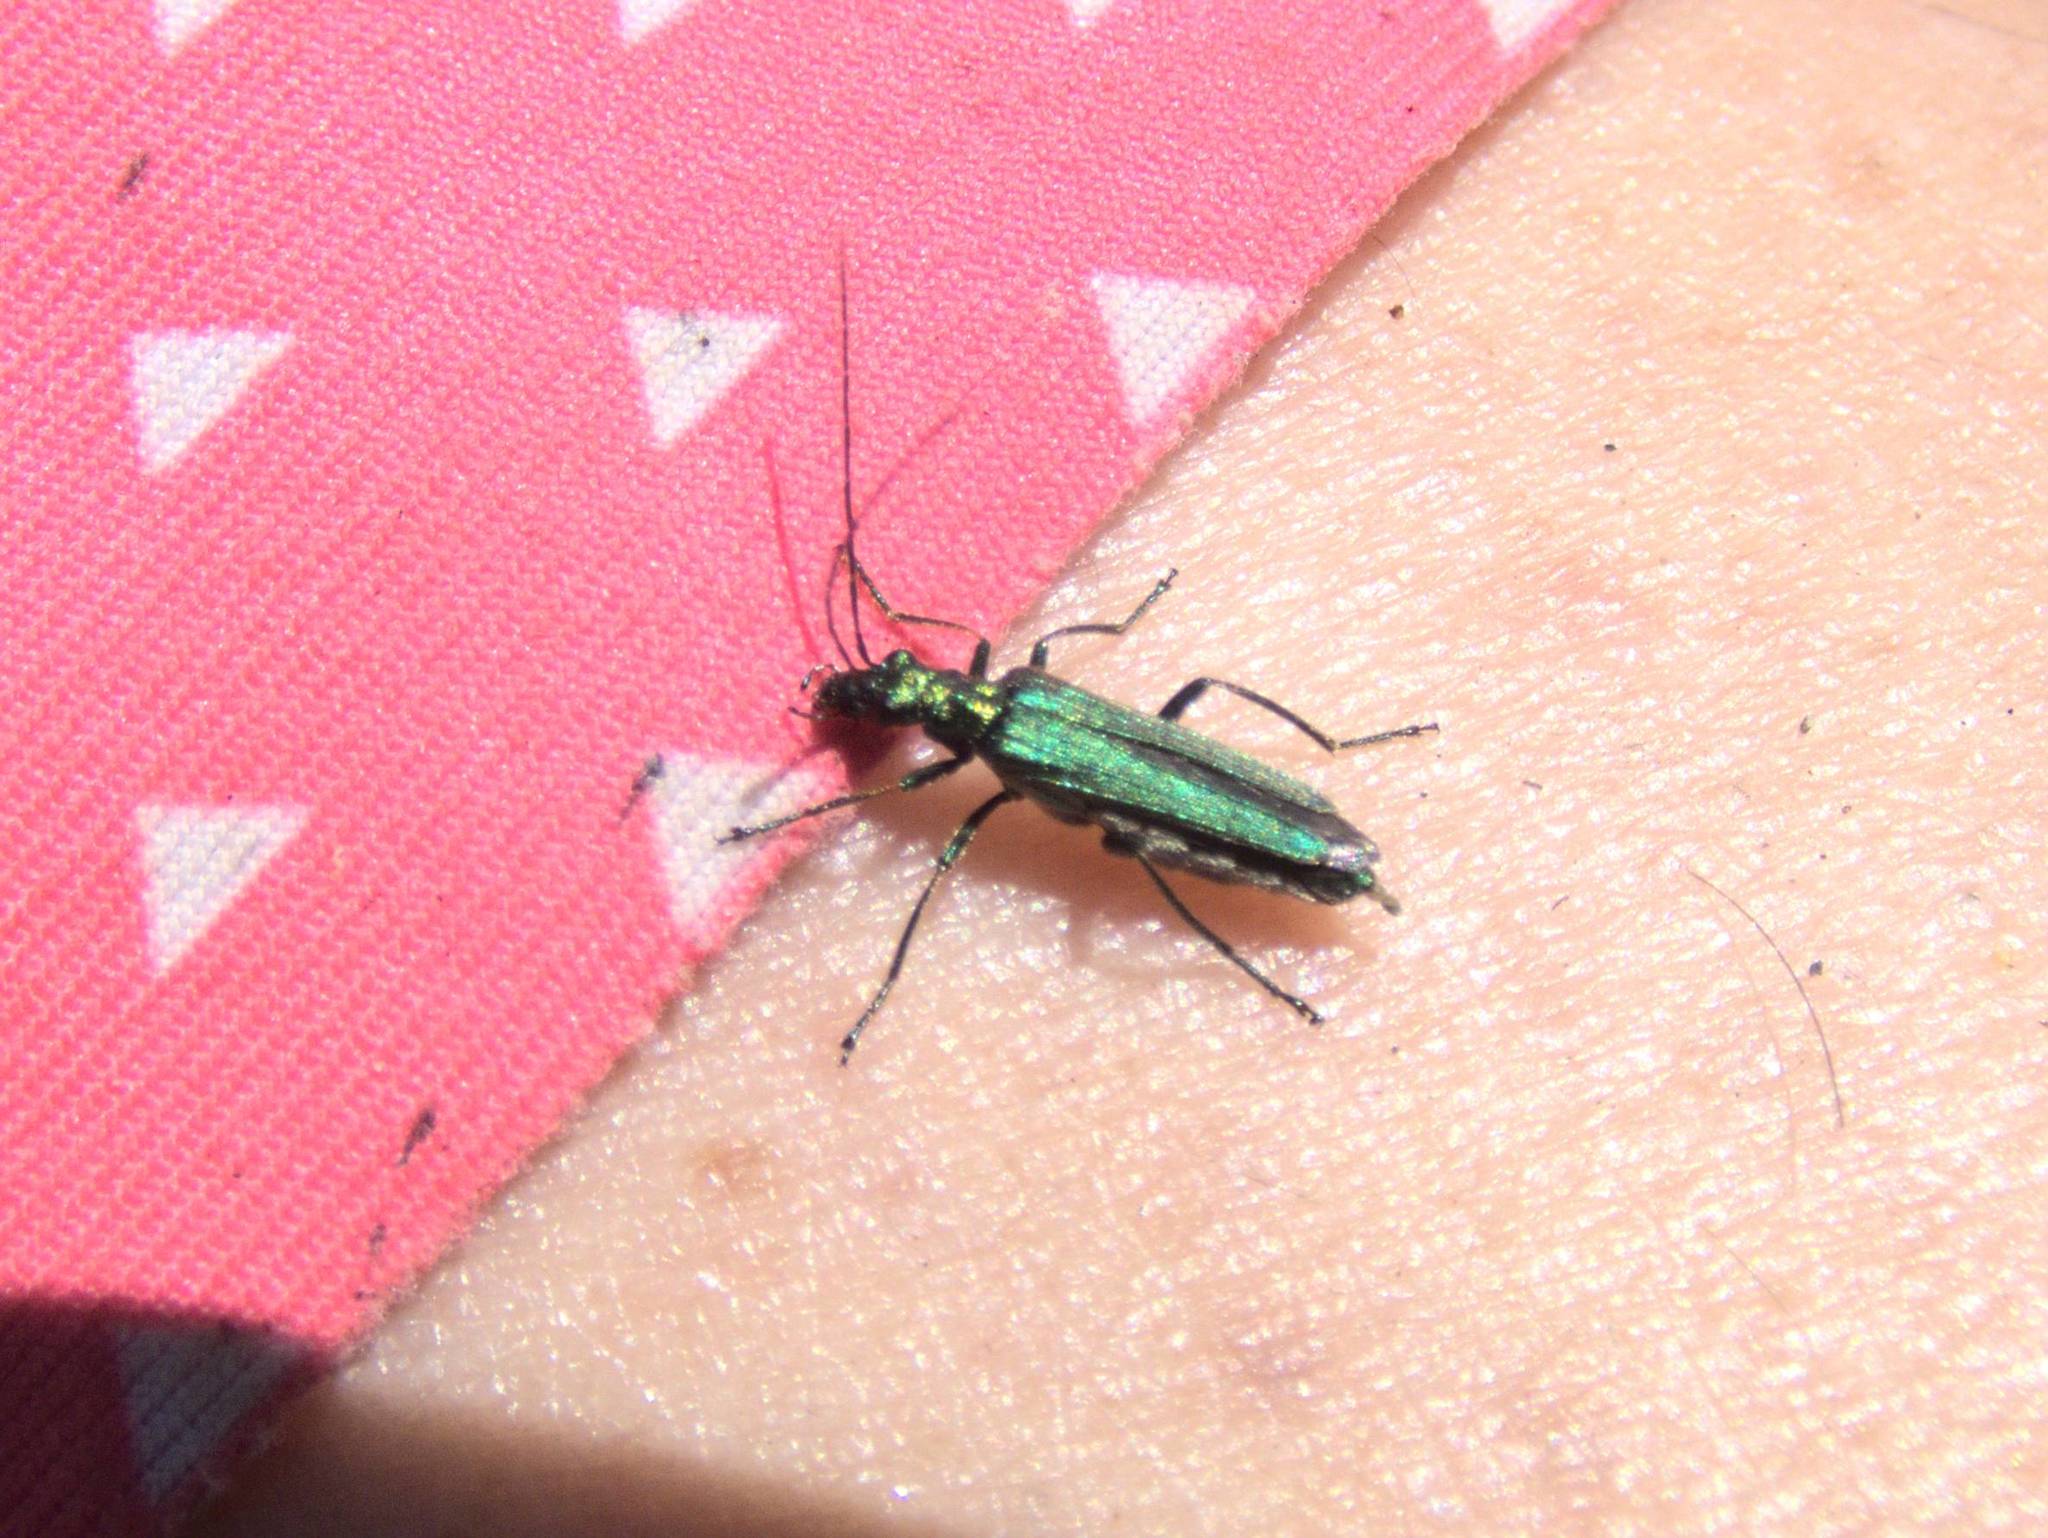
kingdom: Animalia
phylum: Arthropoda
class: Insecta
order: Coleoptera
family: Oedemeridae
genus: Oedemera
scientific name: Oedemera nobilis
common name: Swollen-thighed beetle
